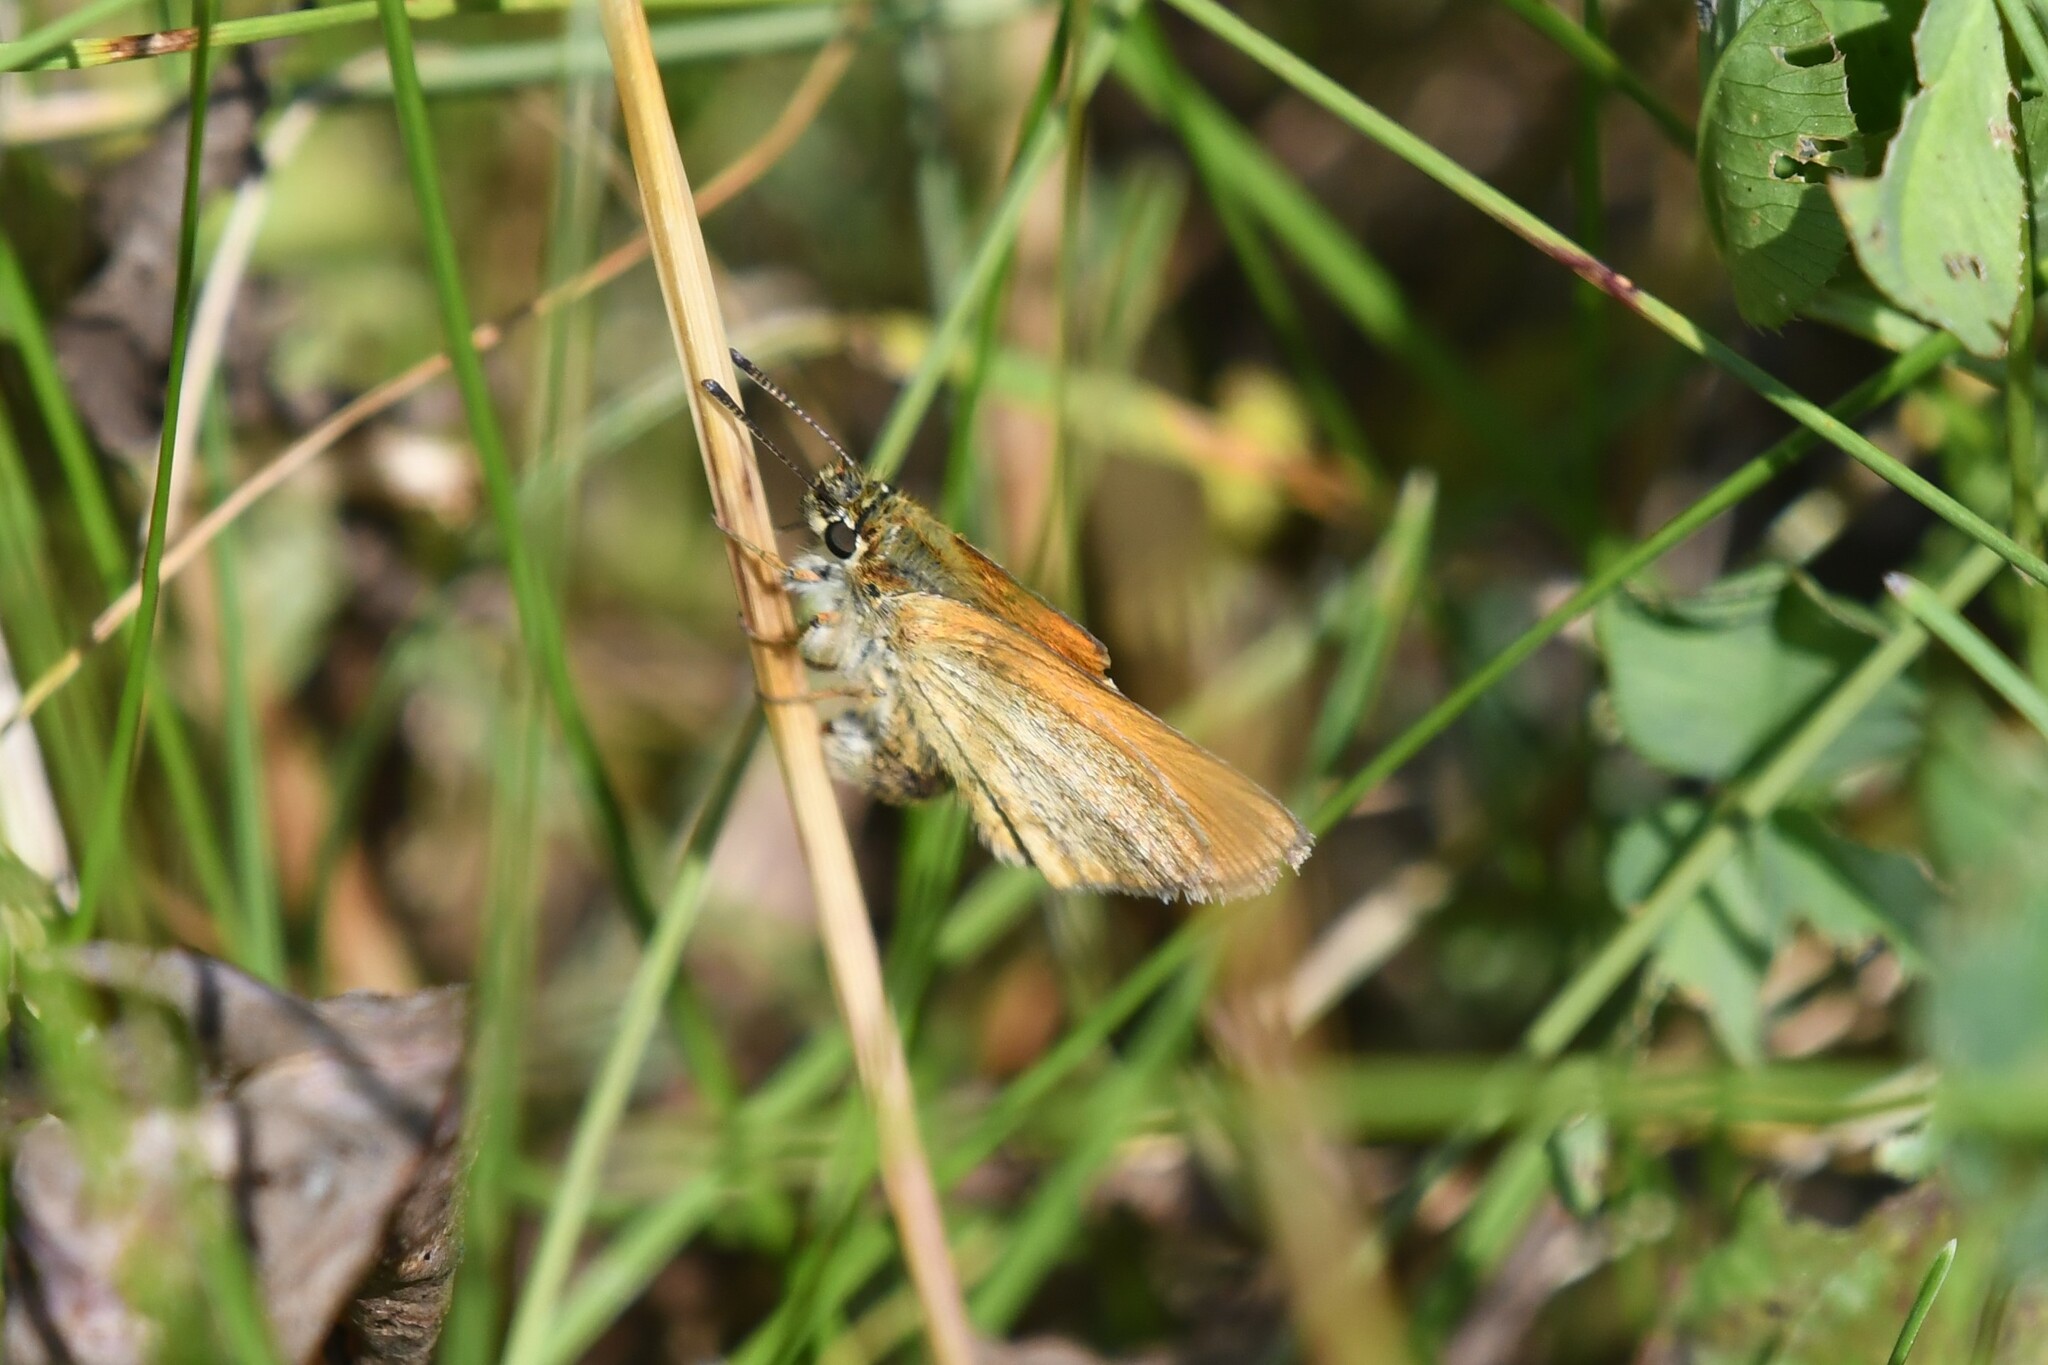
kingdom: Animalia
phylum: Arthropoda
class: Insecta
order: Lepidoptera
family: Hesperiidae
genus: Thymelicus
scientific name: Thymelicus lineola
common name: Essex skipper
